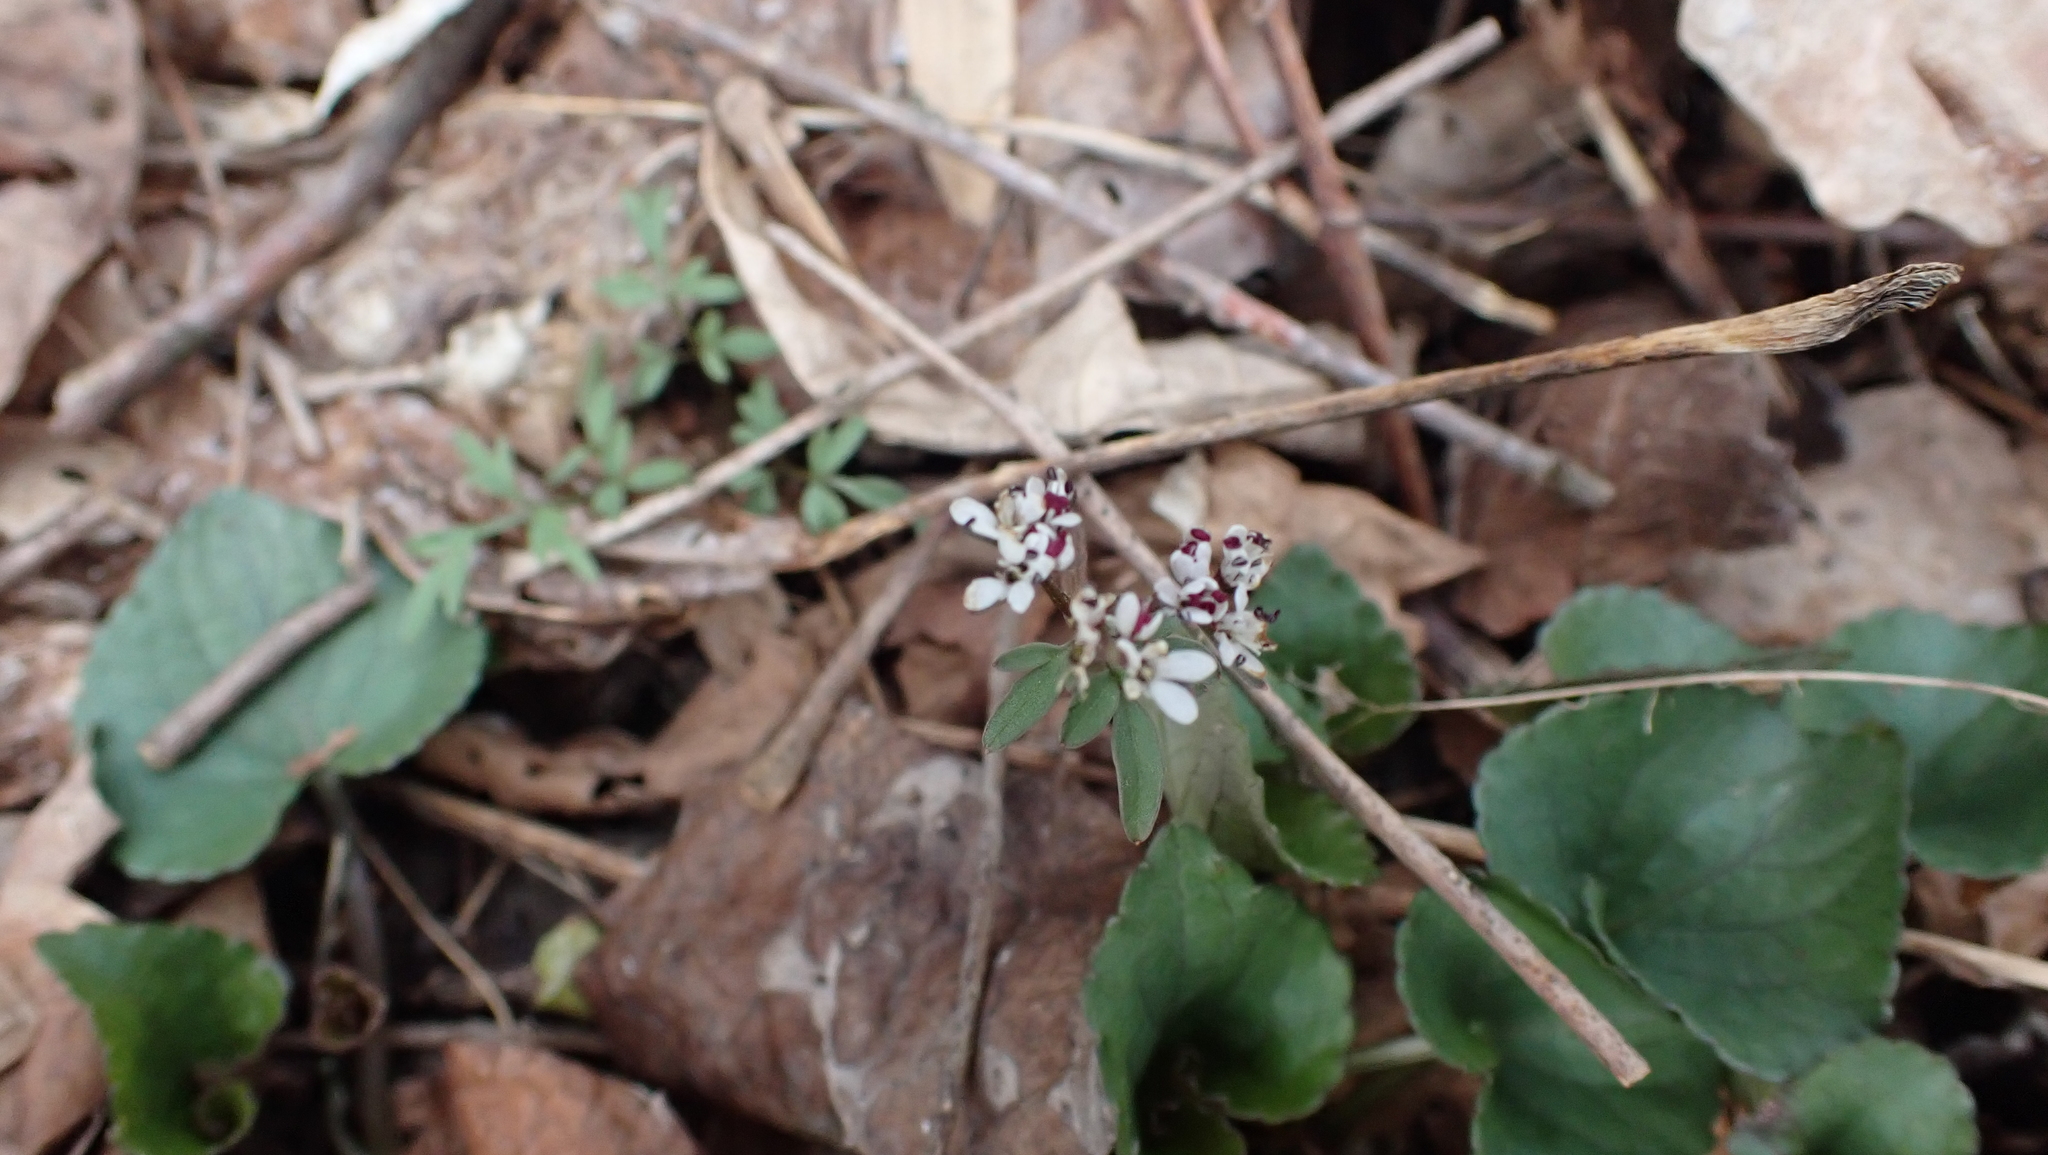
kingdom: Plantae
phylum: Tracheophyta
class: Magnoliopsida
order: Apiales
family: Apiaceae
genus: Erigenia
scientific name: Erigenia bulbosa
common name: Pepper-and-salt
